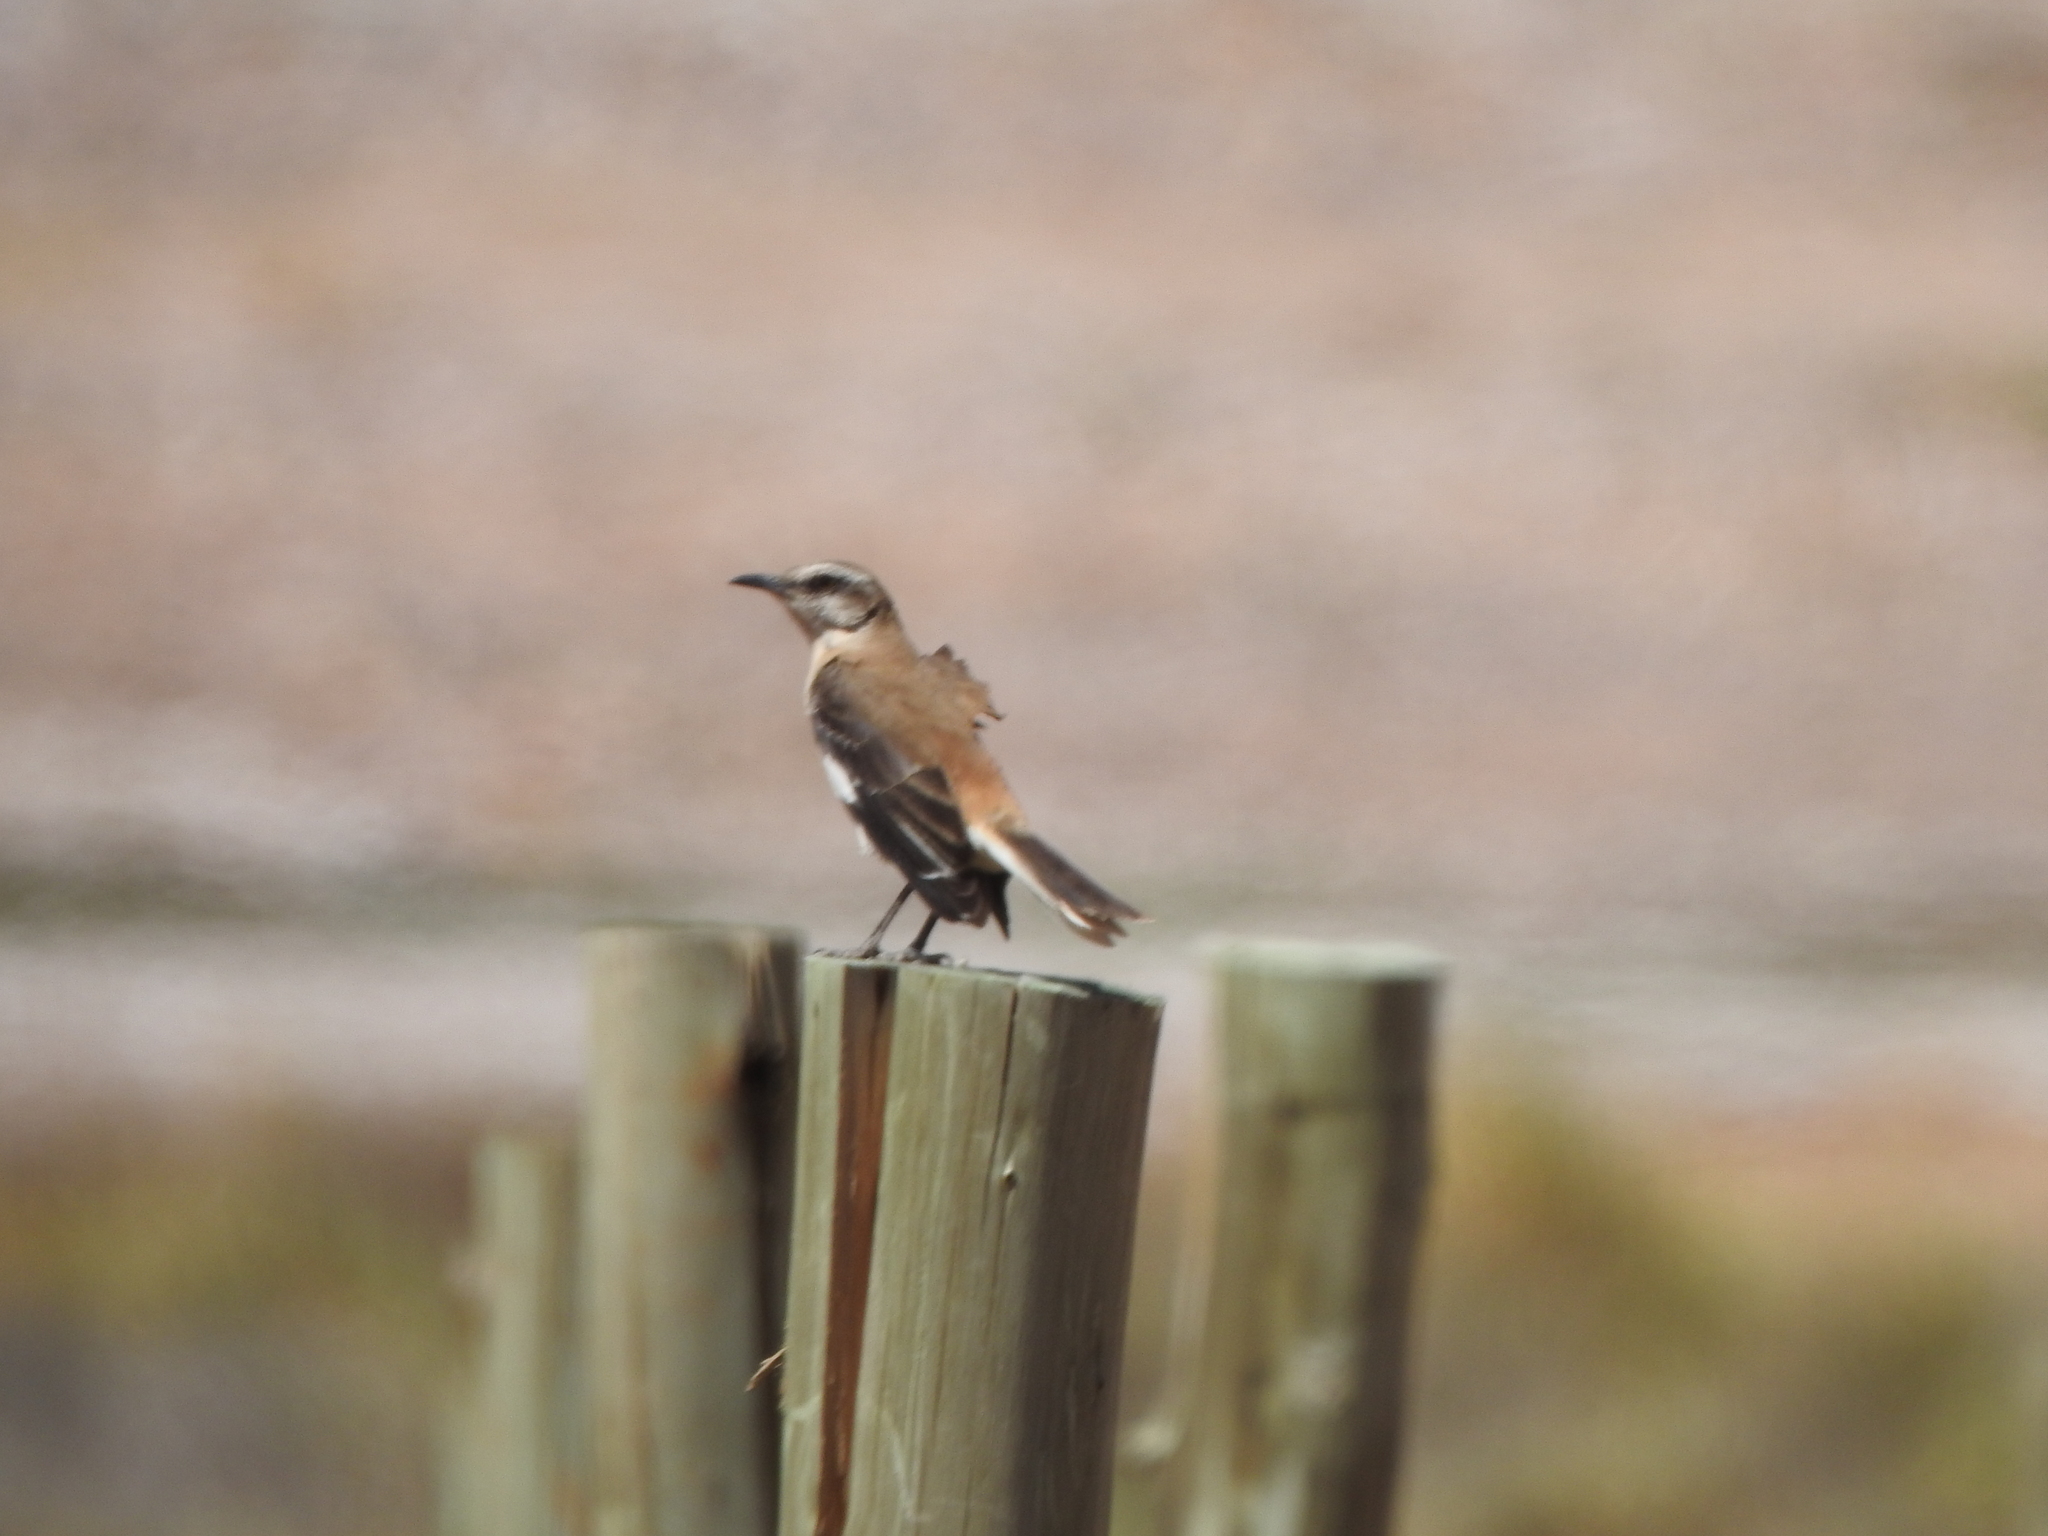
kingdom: Animalia
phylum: Chordata
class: Aves
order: Passeriformes
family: Mimidae
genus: Mimus
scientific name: Mimus dorsalis
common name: Brown-backed mockingbird
